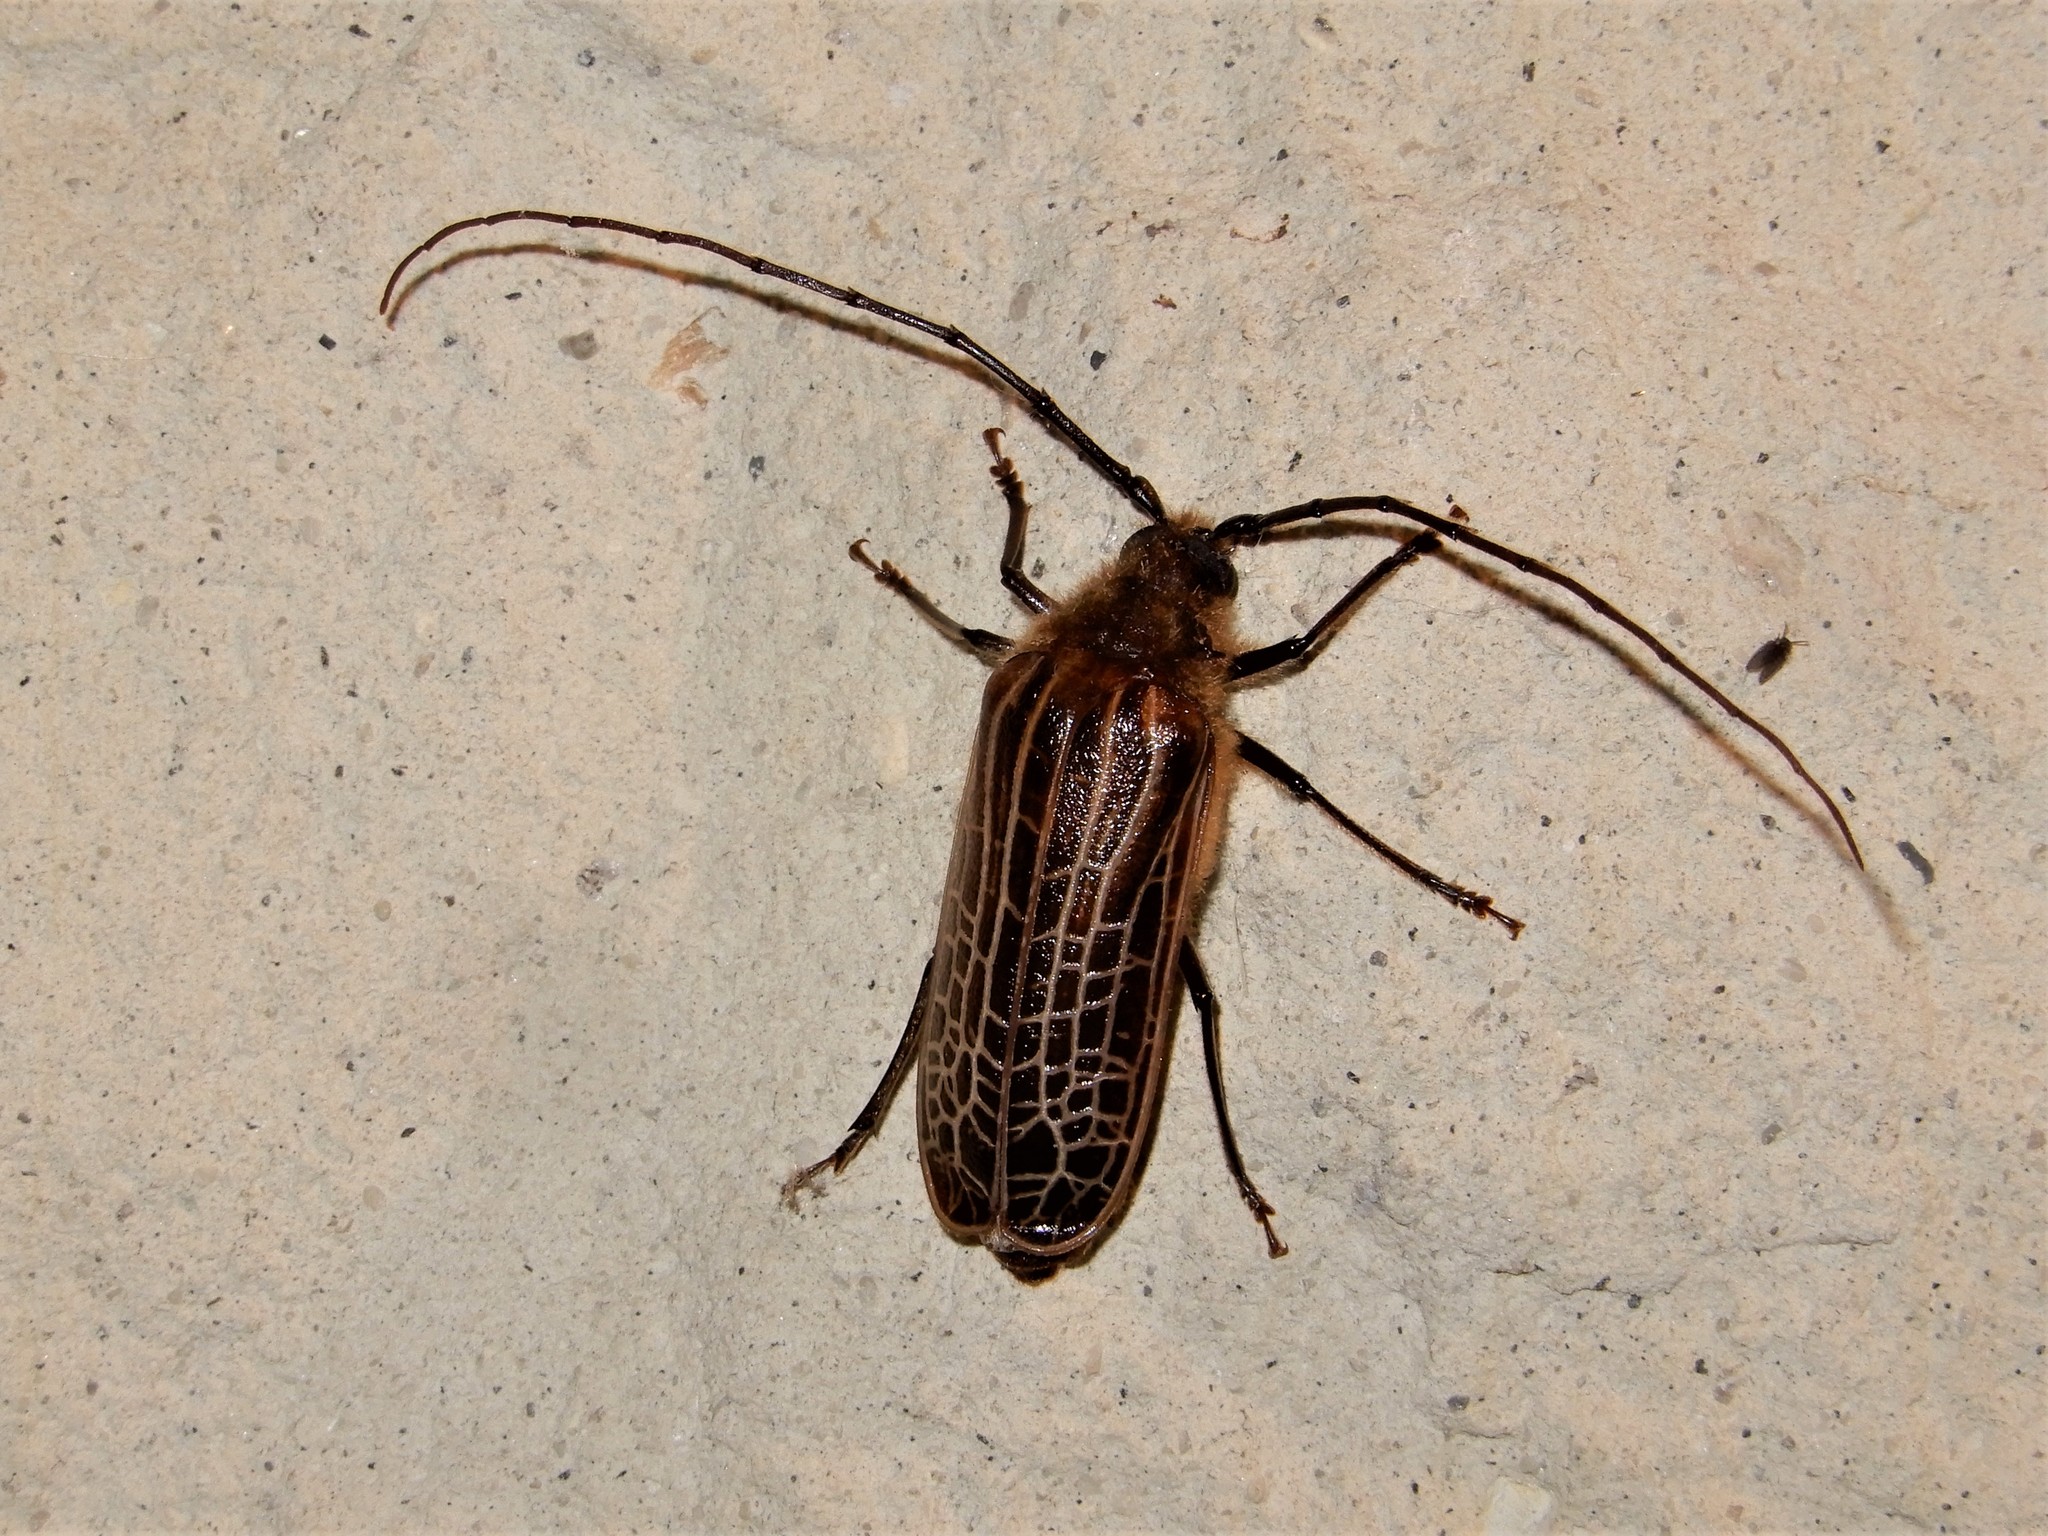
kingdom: Animalia
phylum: Arthropoda
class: Insecta
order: Coleoptera
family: Cerambycidae
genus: Prionoplus
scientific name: Prionoplus reticularis
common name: Huhu beetle
